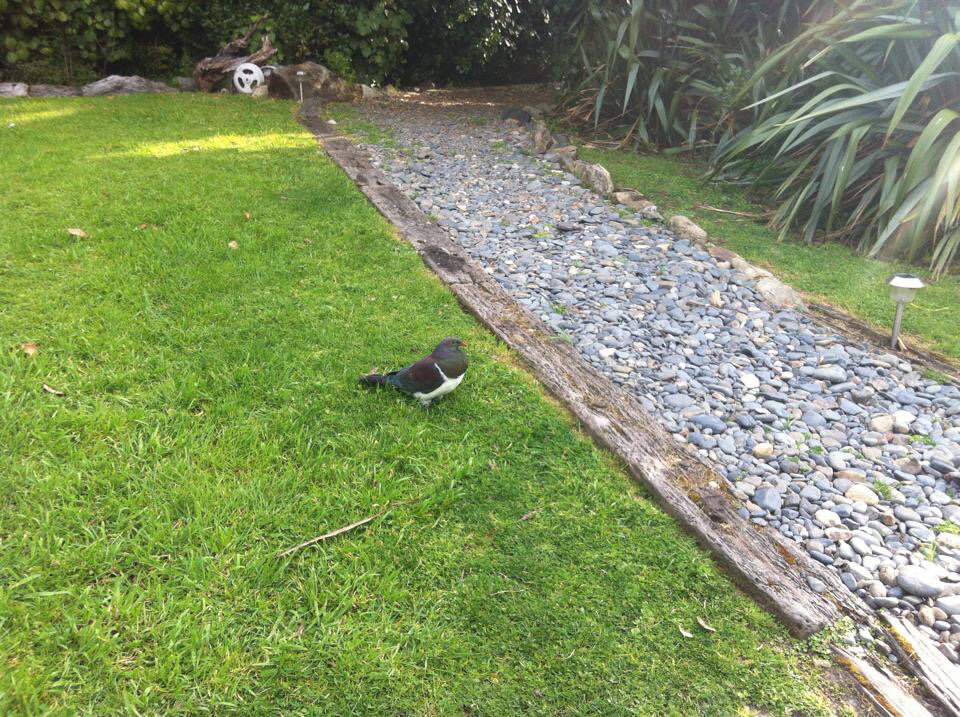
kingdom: Animalia
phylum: Chordata
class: Aves
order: Columbiformes
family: Columbidae
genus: Hemiphaga
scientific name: Hemiphaga novaeseelandiae
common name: New zealand pigeon
